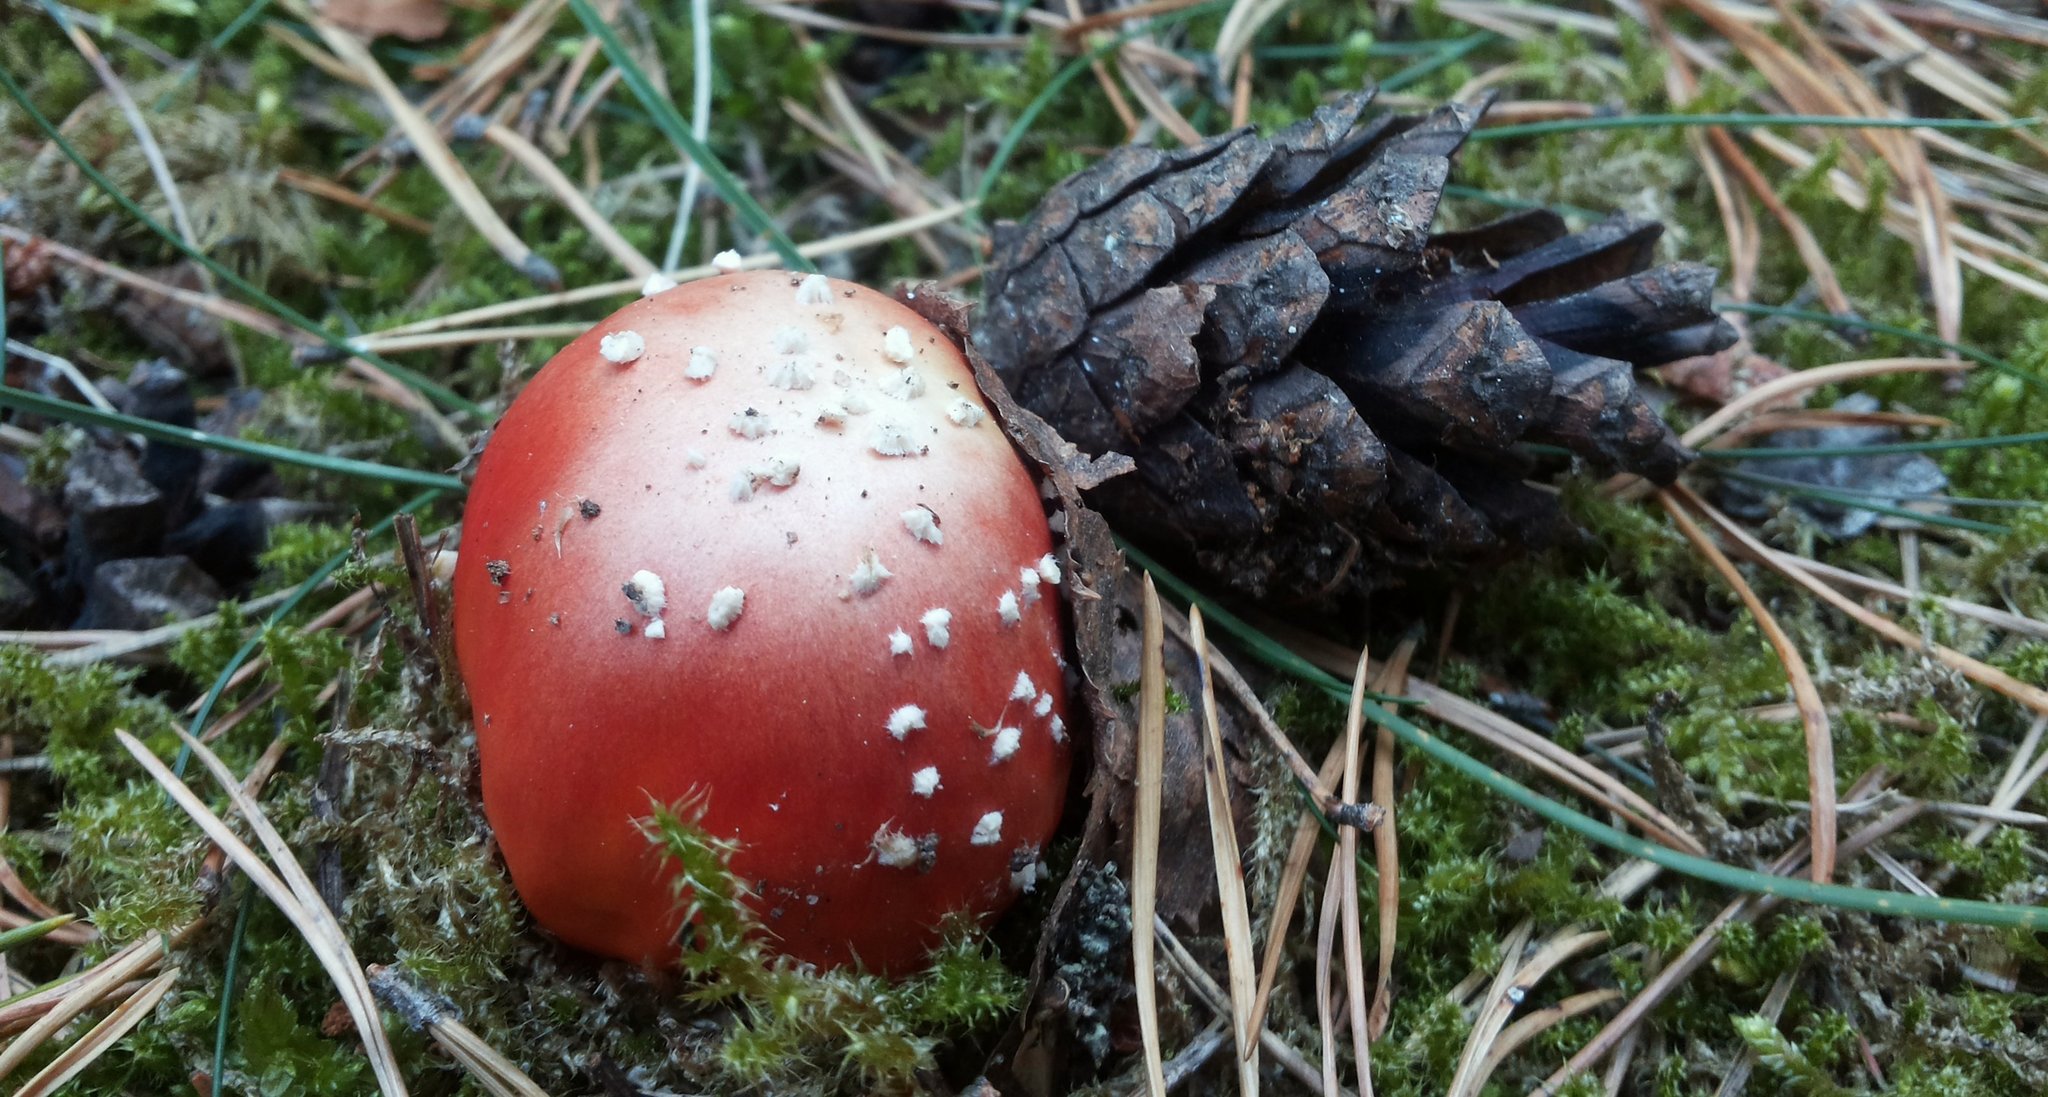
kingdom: Fungi
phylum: Basidiomycota
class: Agaricomycetes
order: Agaricales
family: Amanitaceae
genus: Amanita
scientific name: Amanita muscaria
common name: Fly agaric
